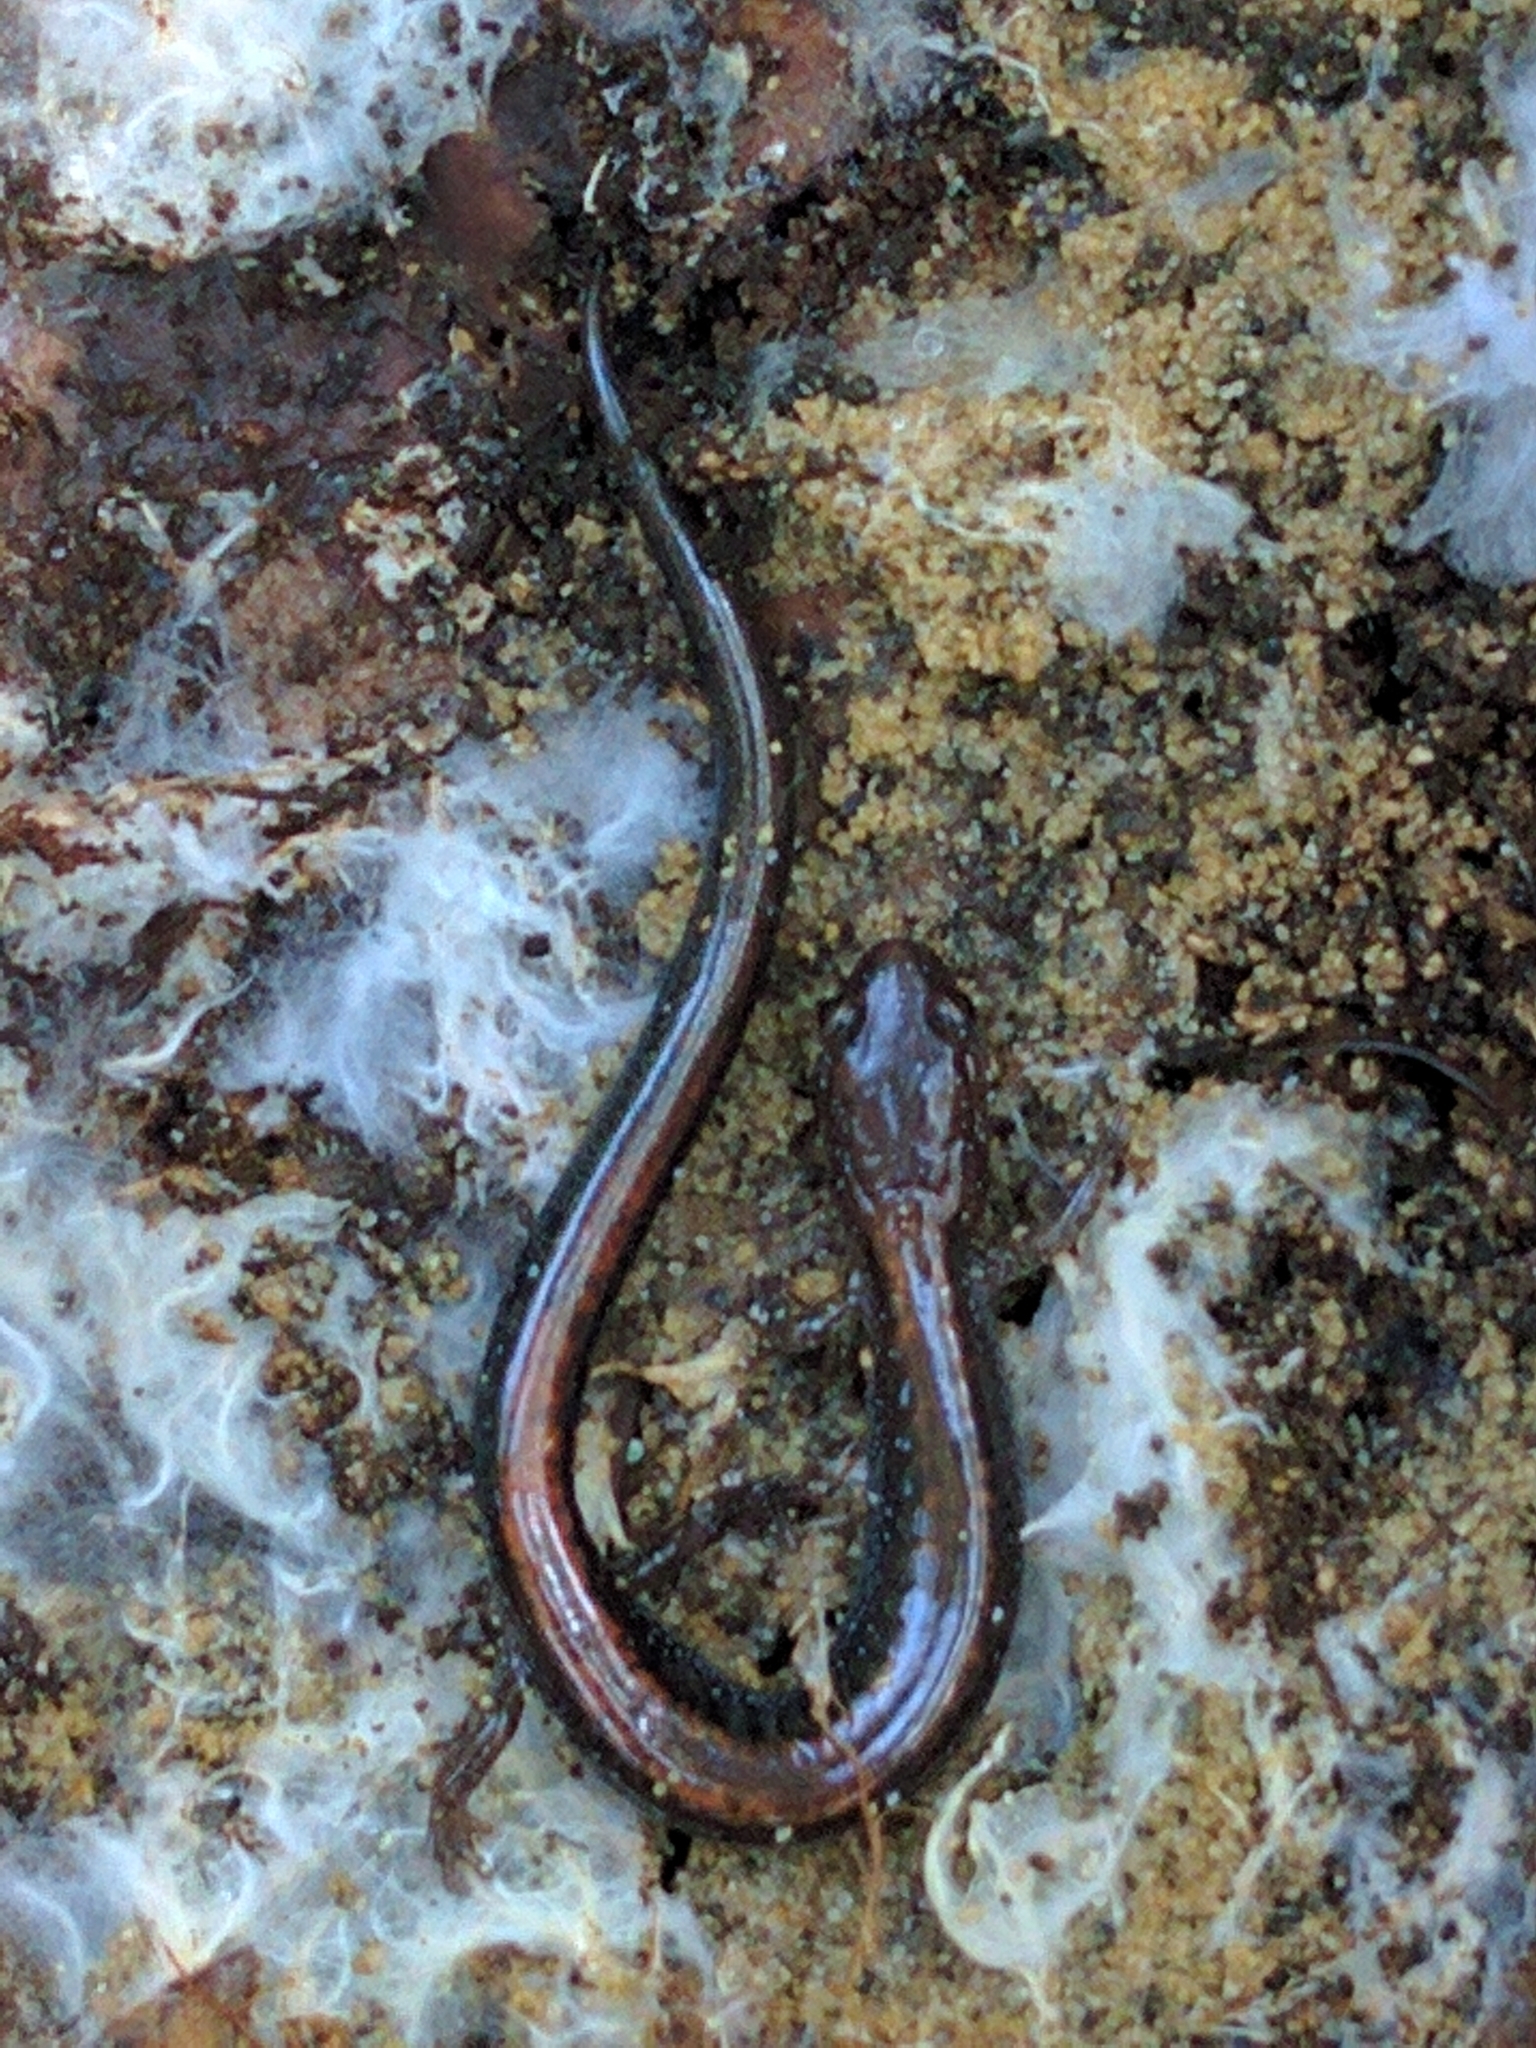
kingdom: Animalia
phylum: Chordata
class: Amphibia
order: Caudata
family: Plethodontidae
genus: Plethodon
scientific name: Plethodon cinereus
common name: Redback salamander
